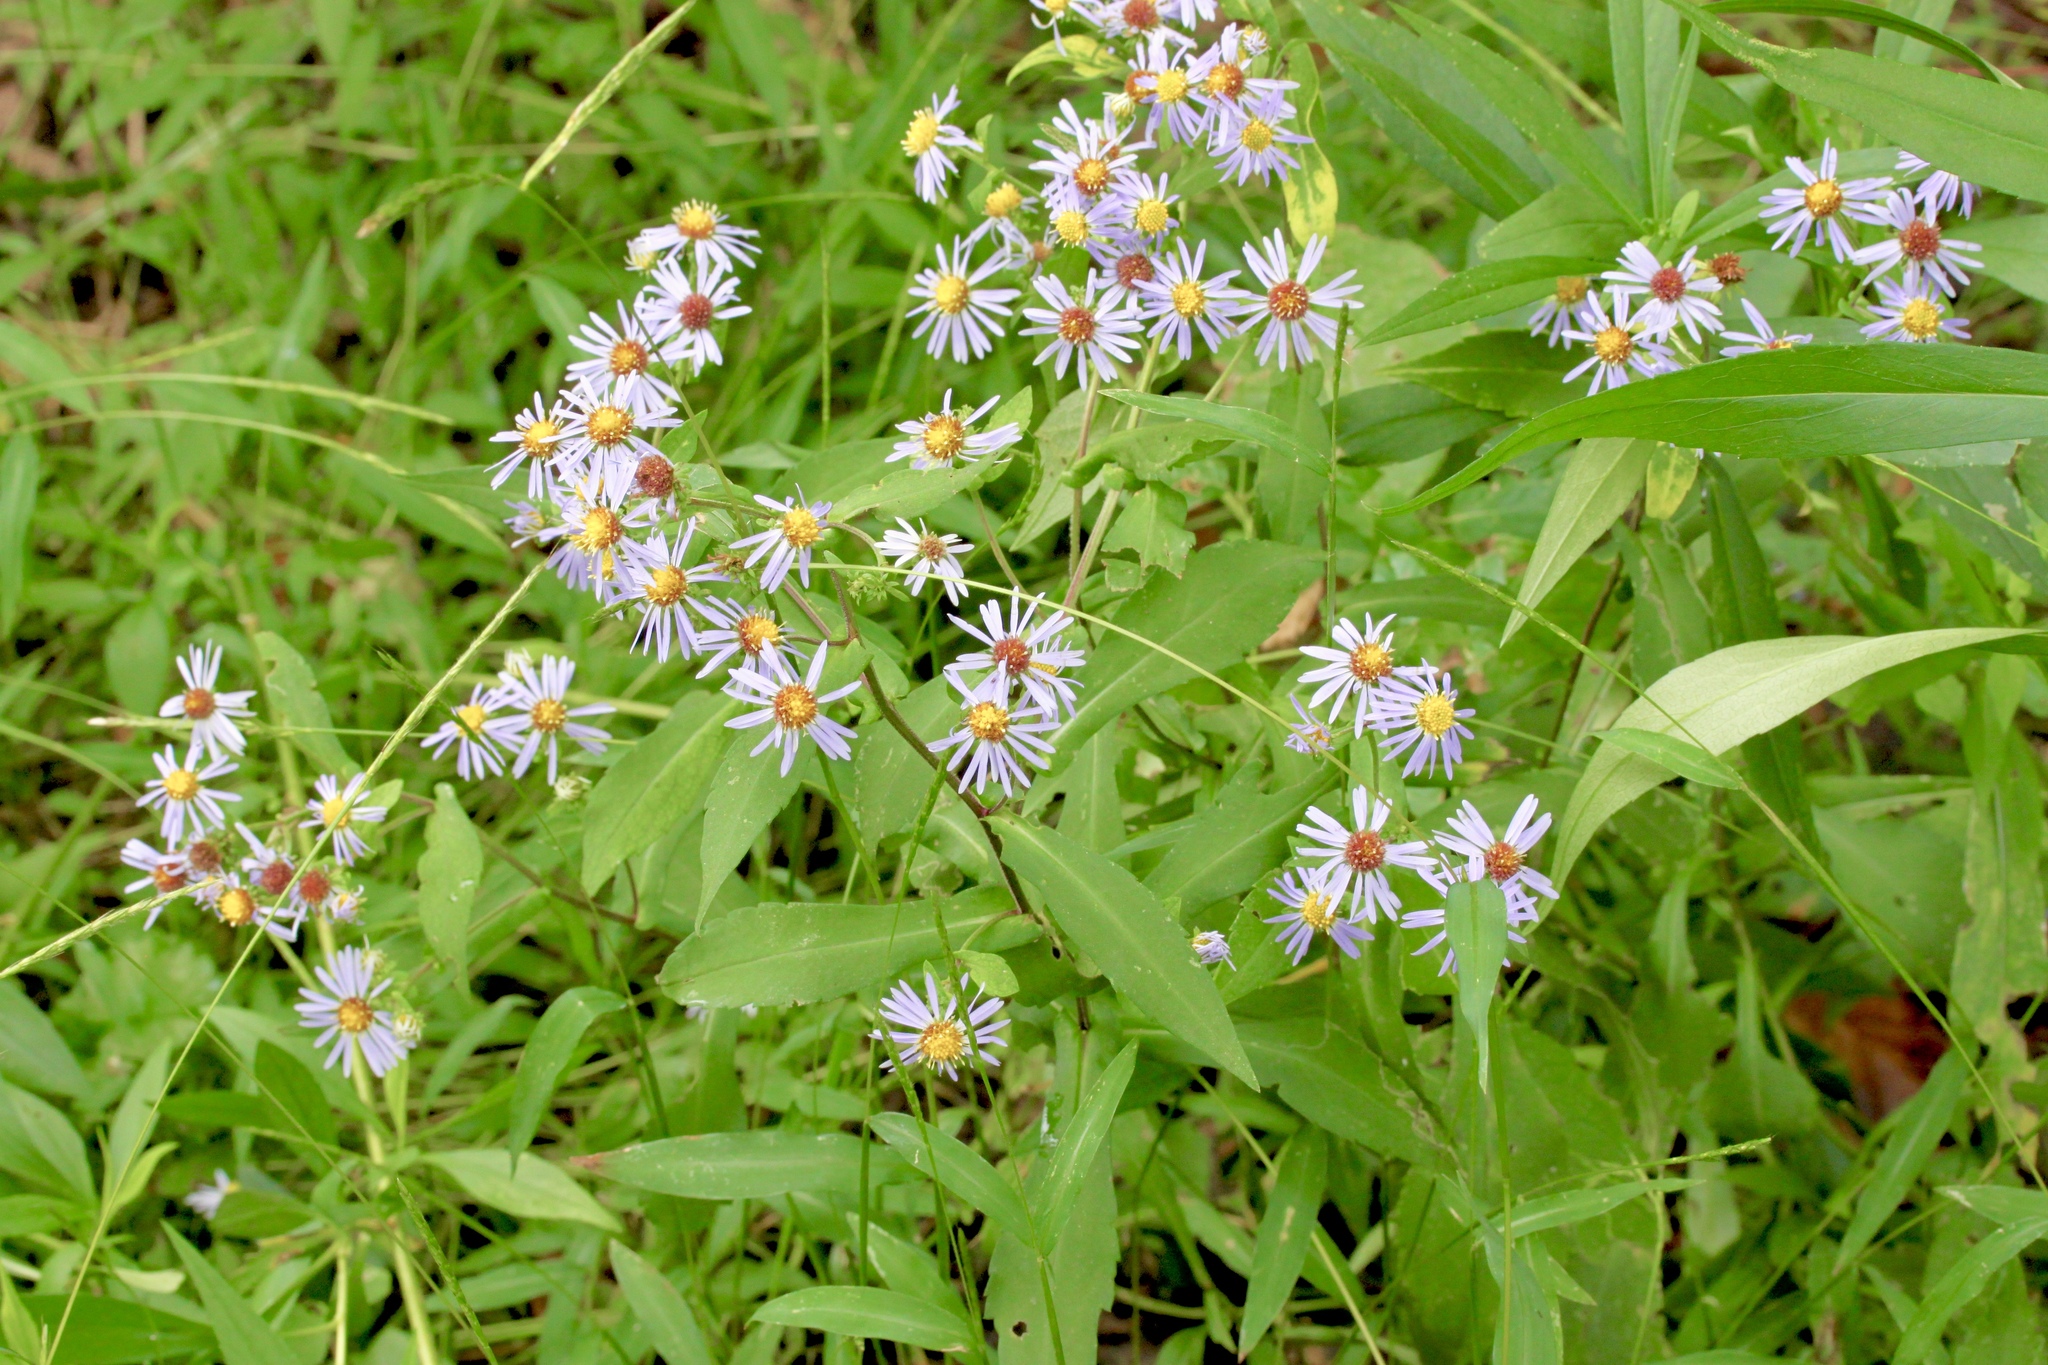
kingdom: Plantae
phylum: Tracheophyta
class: Magnoliopsida
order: Asterales
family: Asteraceae
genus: Symphyotrichum
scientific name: Symphyotrichum prenanthoides
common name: Crooked-stem aster
